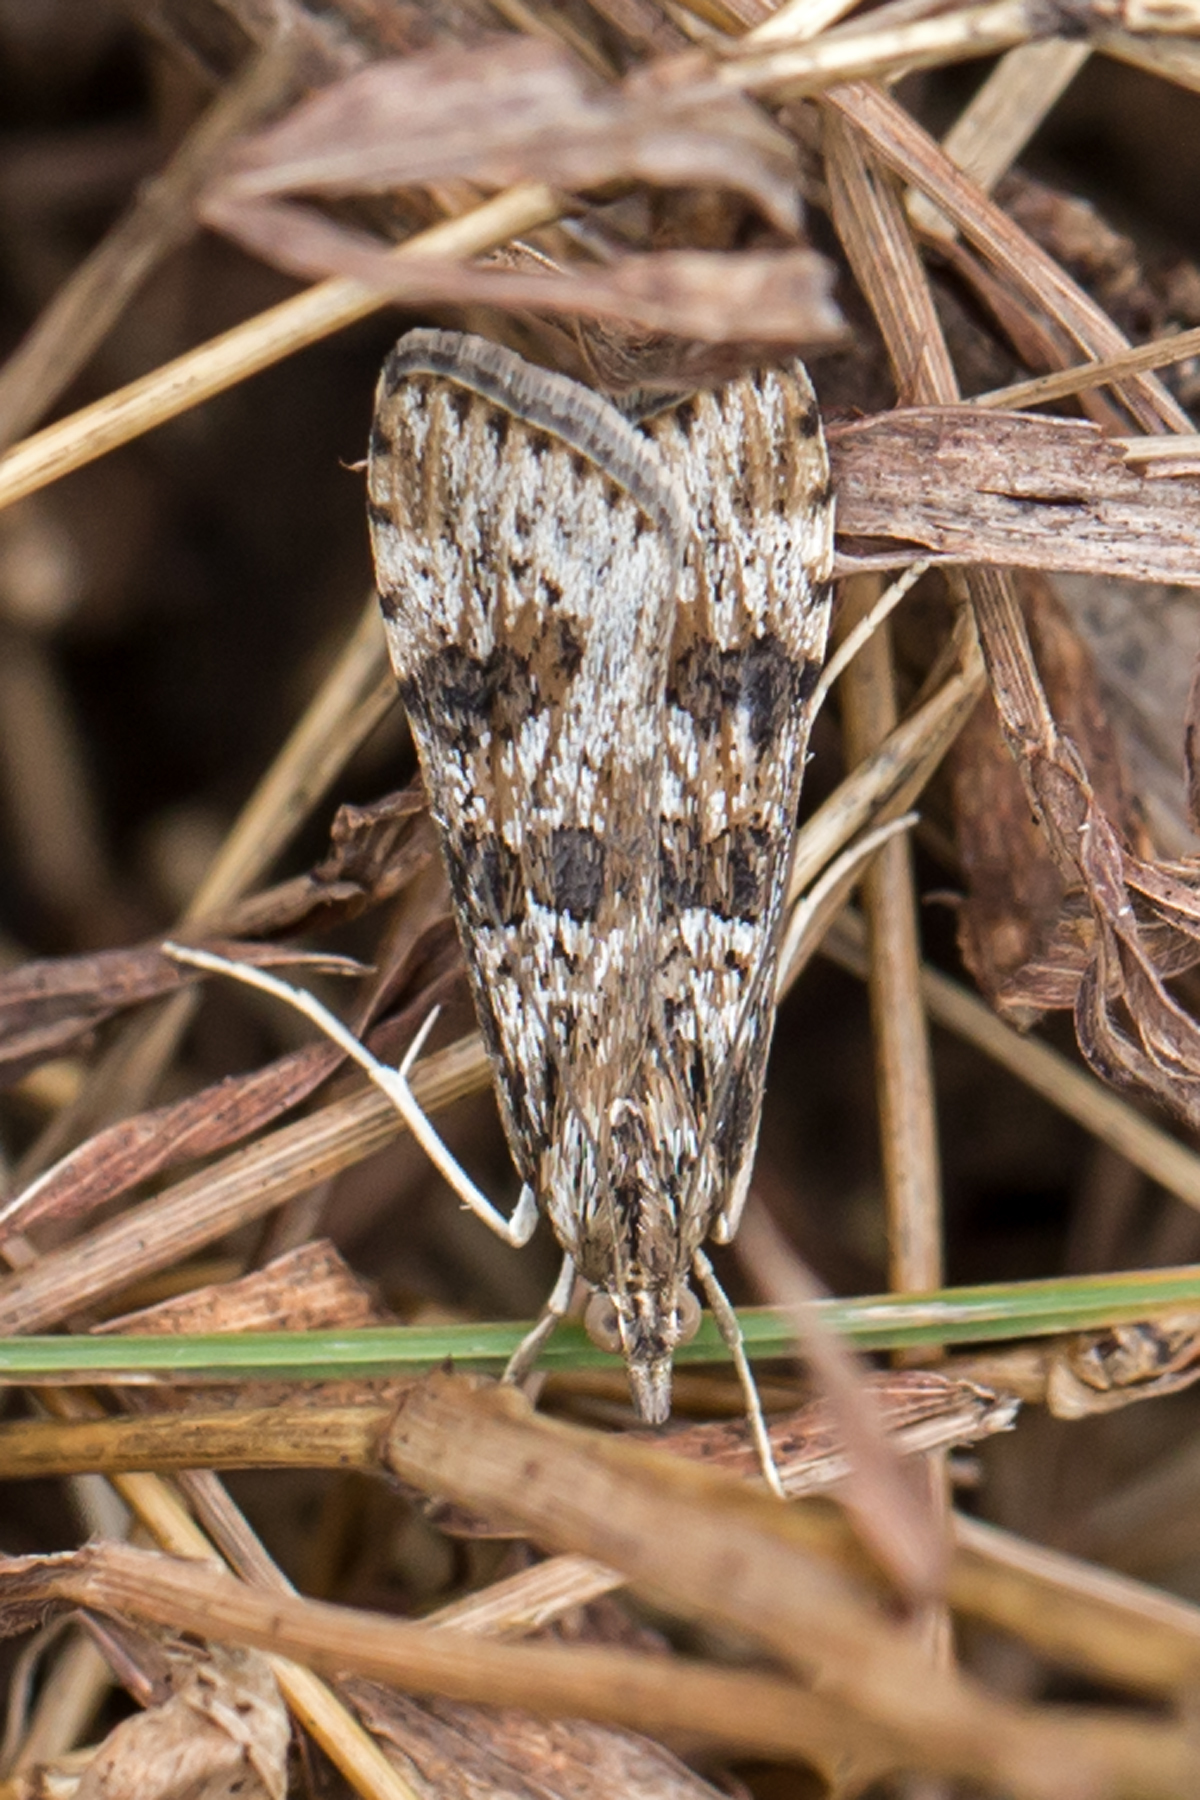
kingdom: Animalia
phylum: Arthropoda
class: Insecta
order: Lepidoptera
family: Crambidae
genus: Nomophila
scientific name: Nomophila nearctica
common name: American rush veneer
